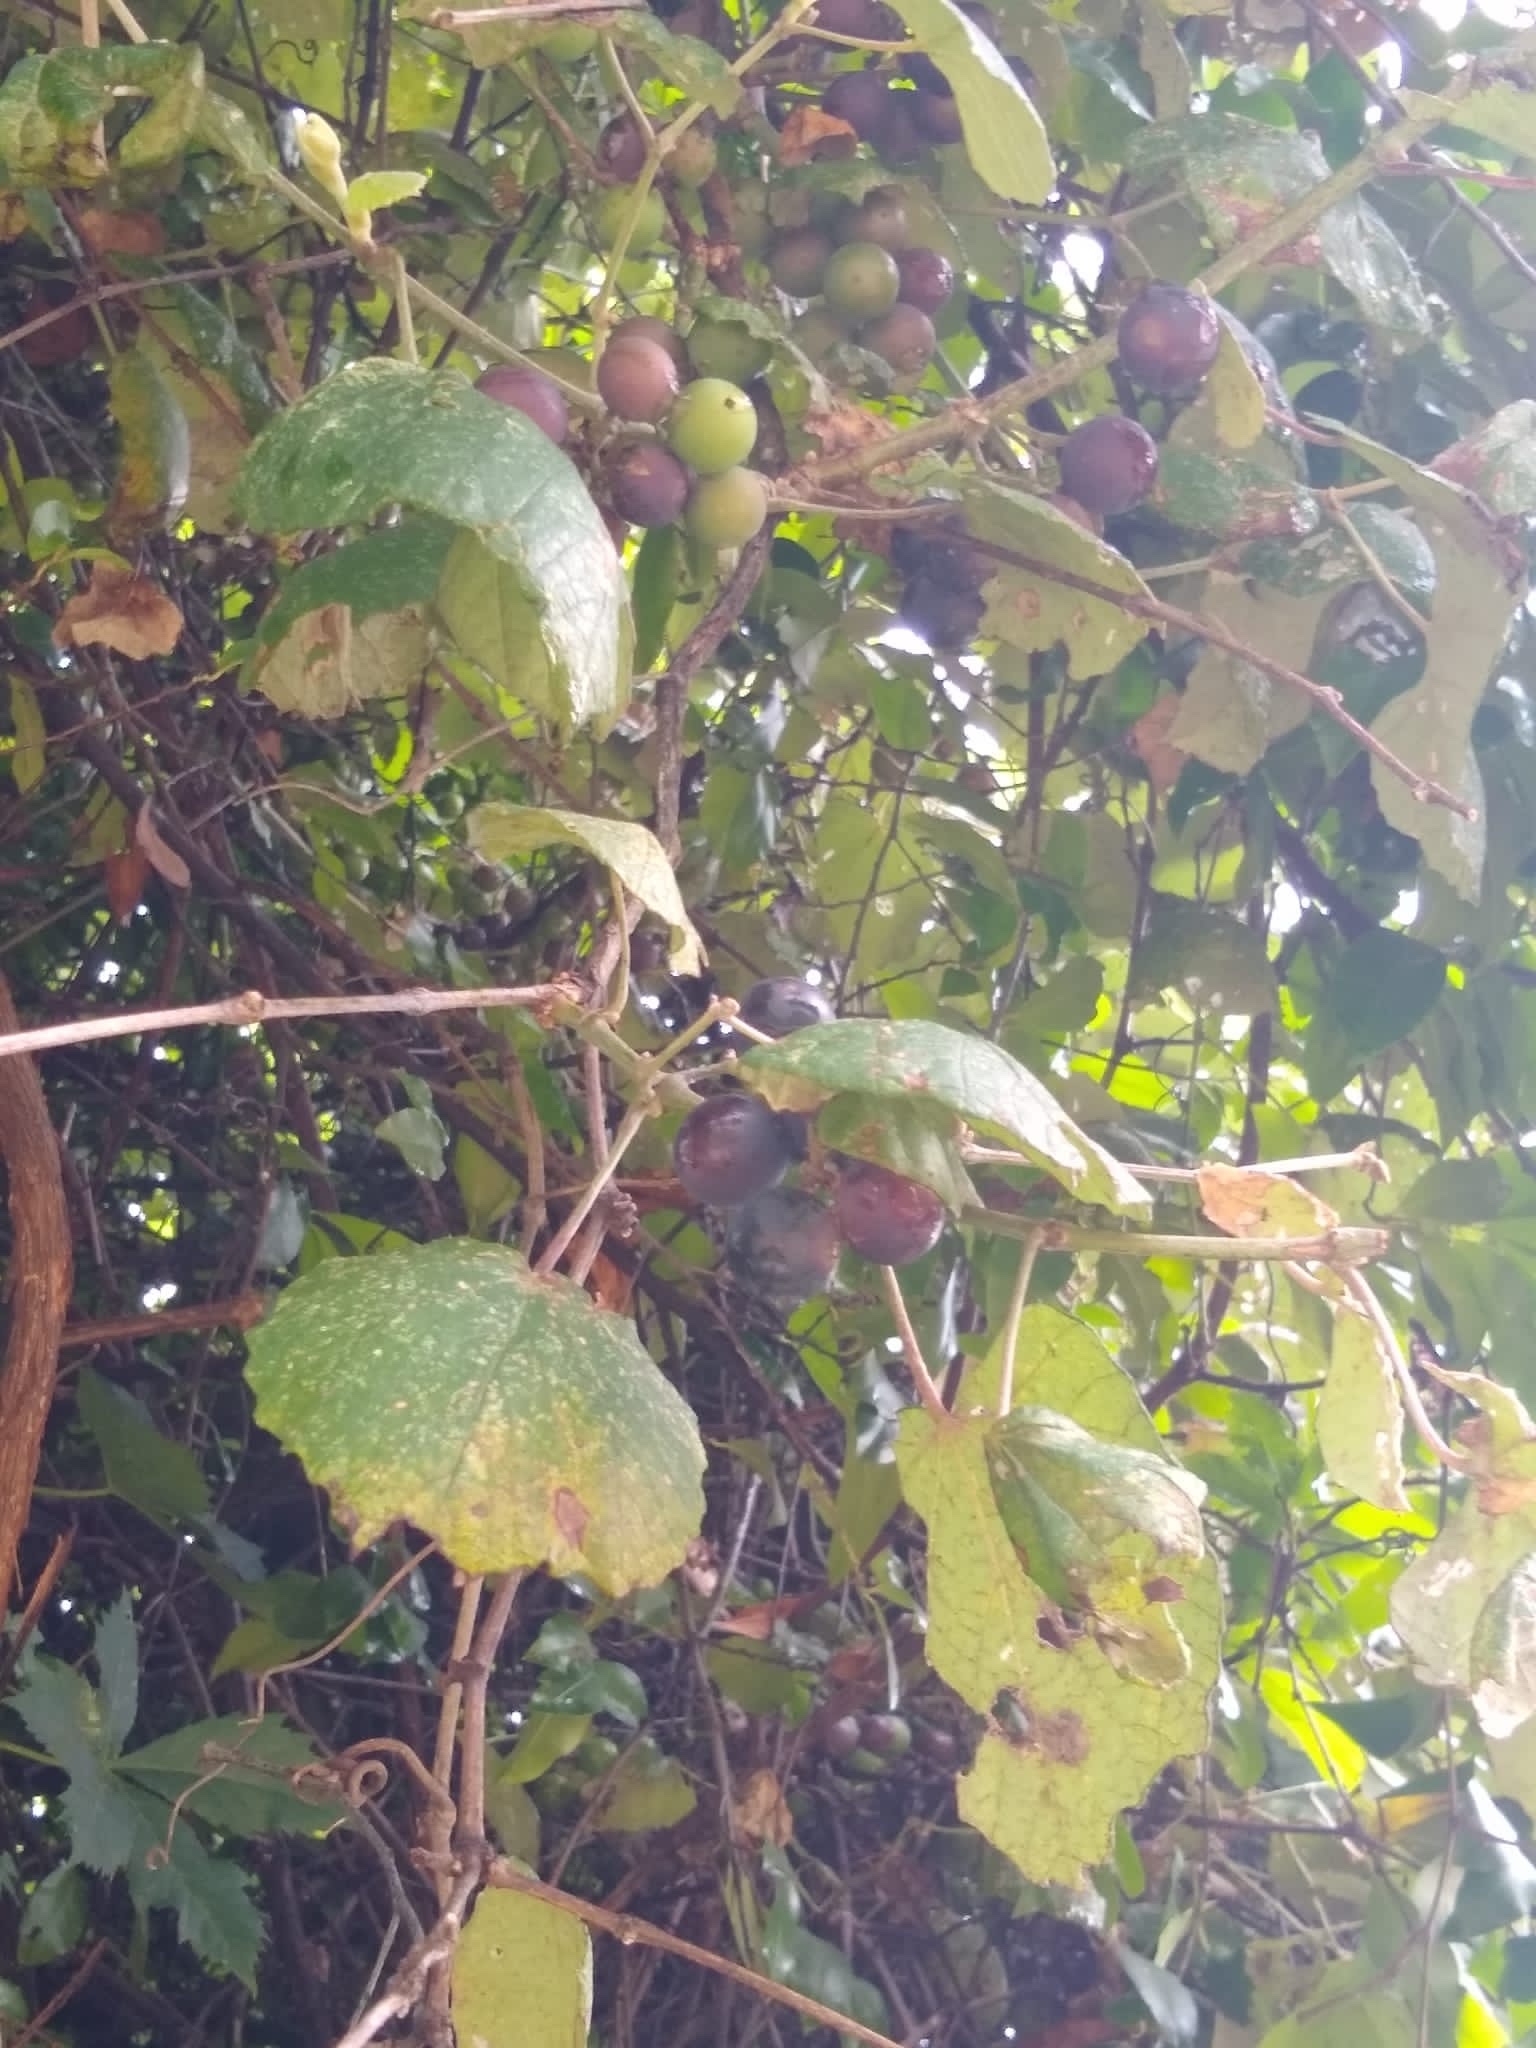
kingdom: Plantae
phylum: Tracheophyta
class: Magnoliopsida
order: Vitales
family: Vitaceae
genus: Vitis
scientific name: Vitis mustangensis
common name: Mustang grape
